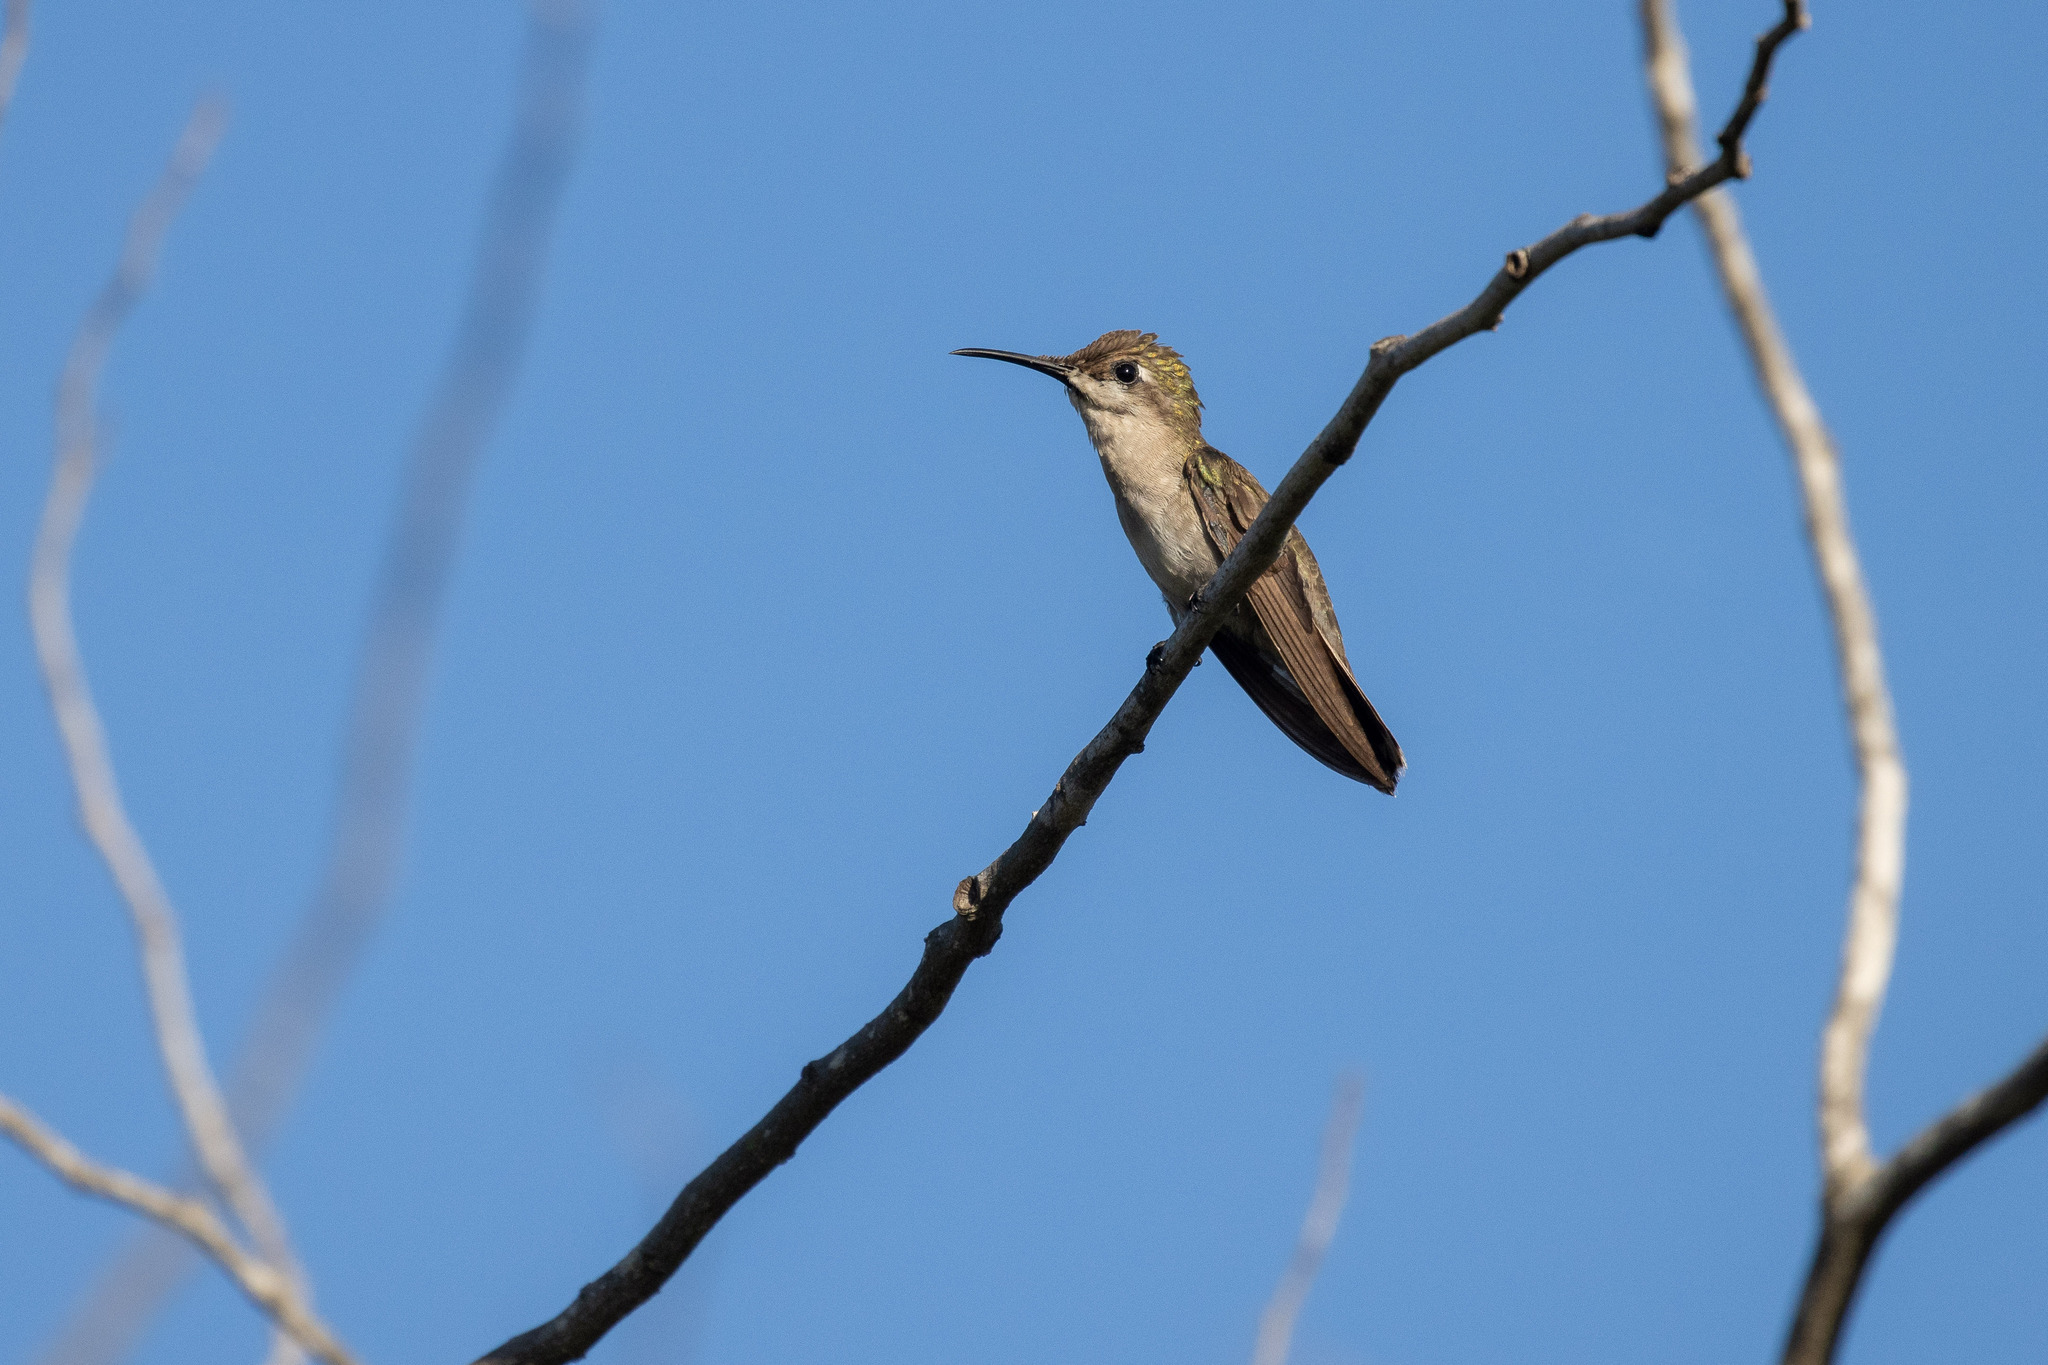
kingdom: Animalia
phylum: Chordata
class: Aves
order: Apodiformes
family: Trochilidae
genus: Chrysolampis
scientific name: Chrysolampis mosquitus
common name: Ruby-topaz hummingbird
